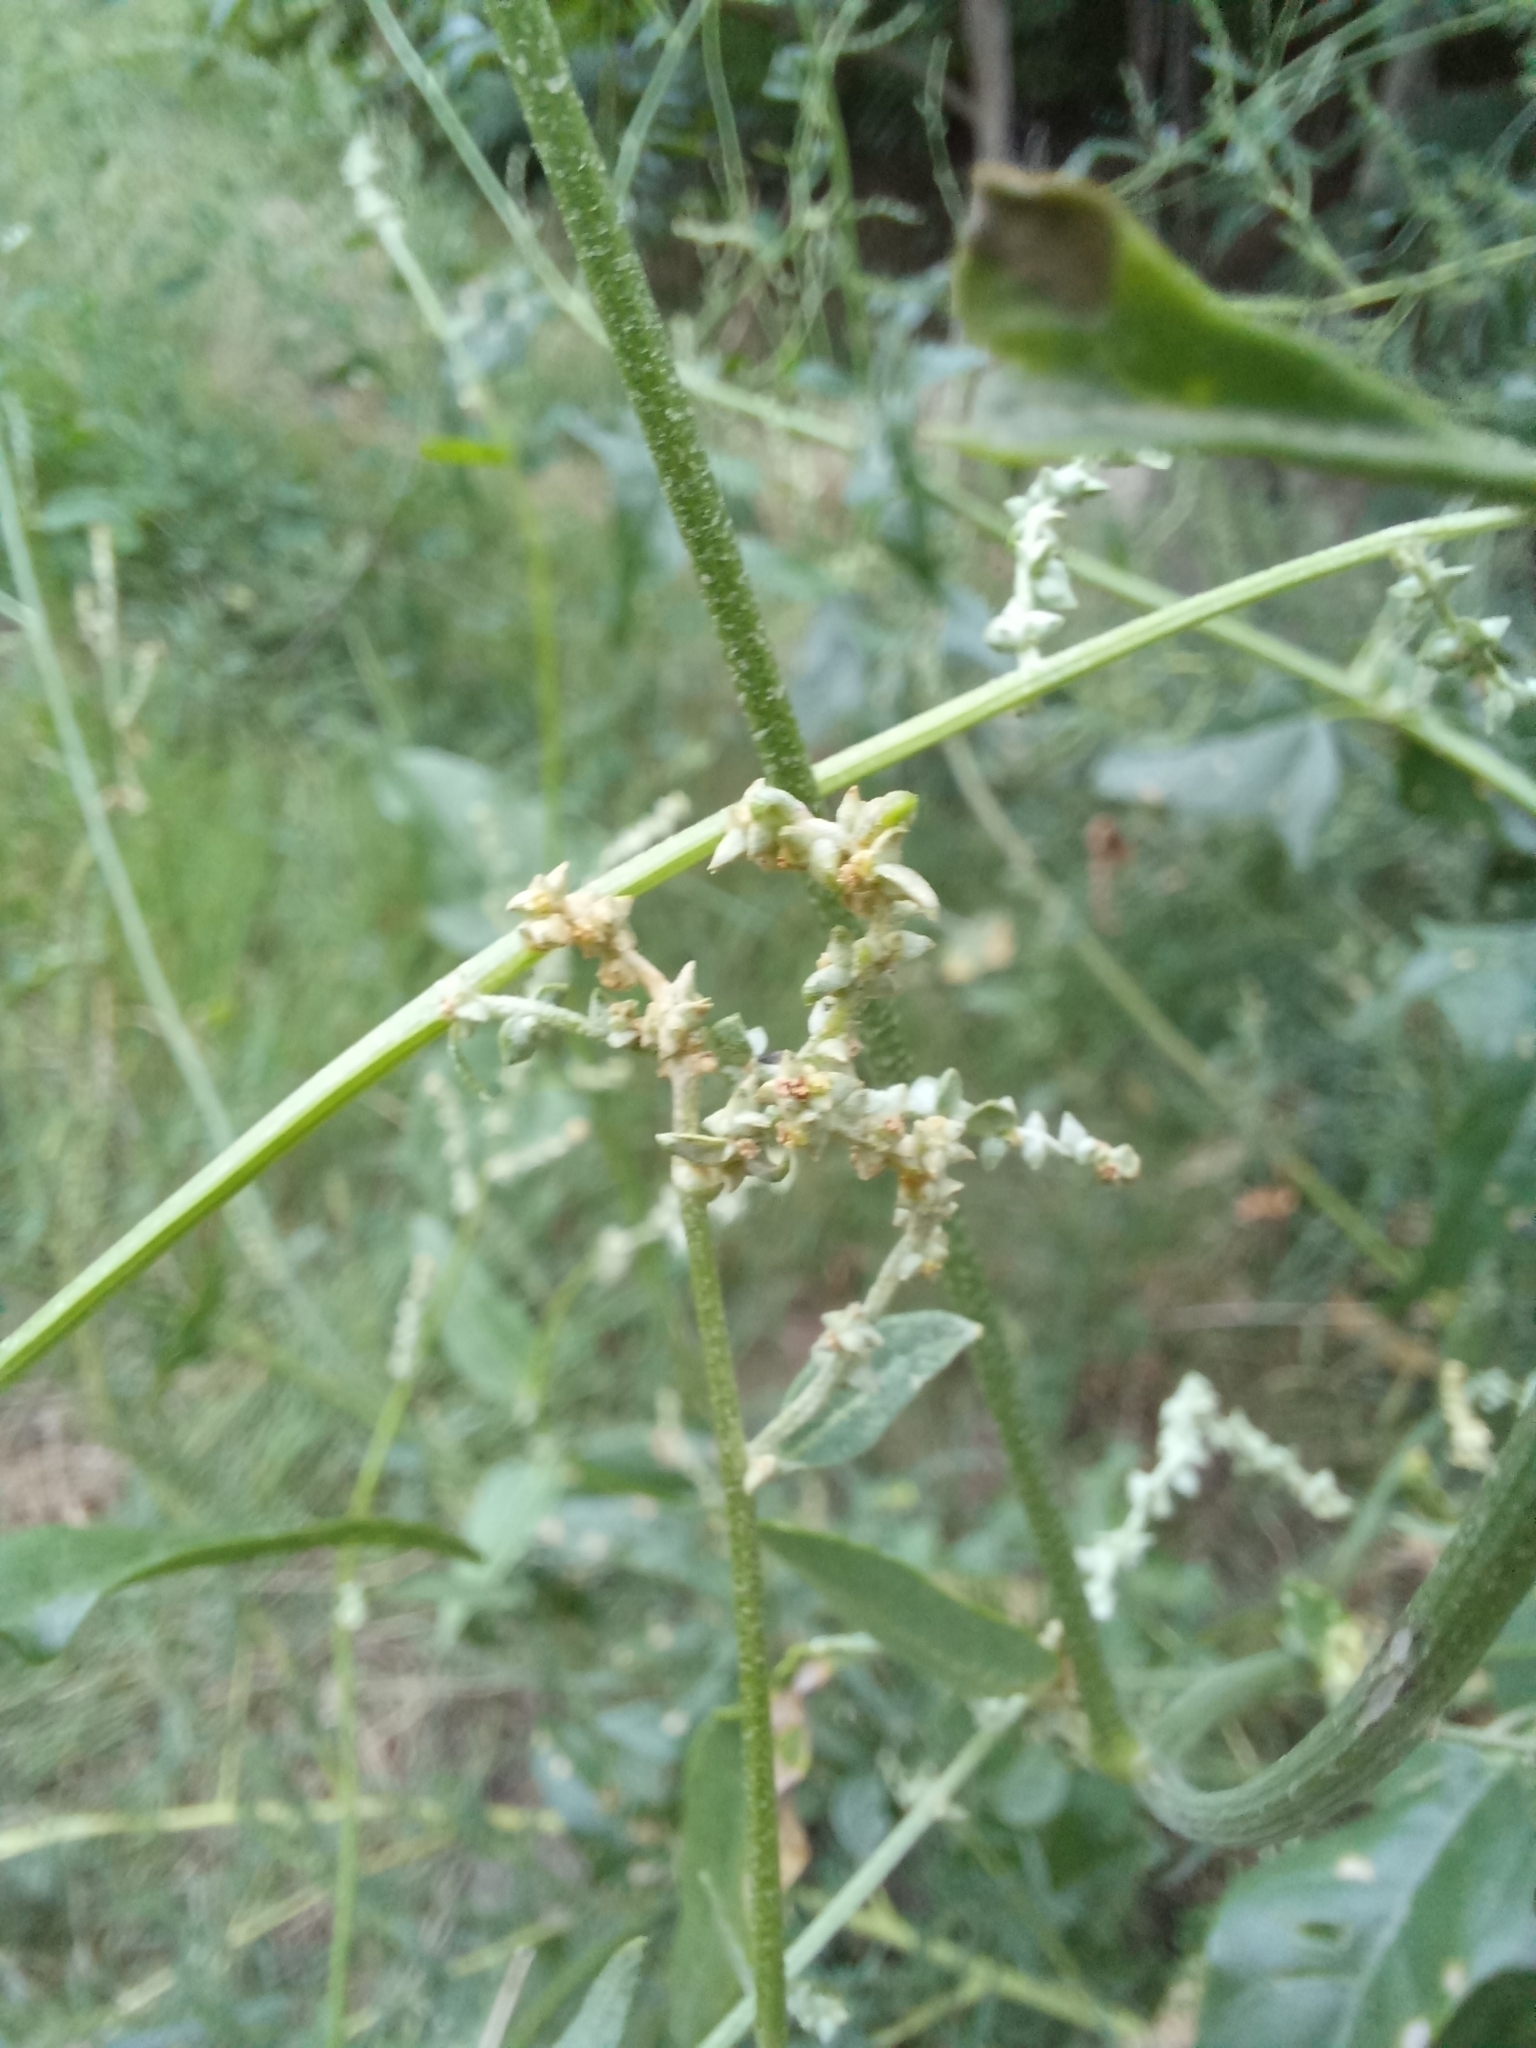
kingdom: Plantae
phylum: Tracheophyta
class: Magnoliopsida
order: Caryophyllales
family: Amaranthaceae
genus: Atriplex
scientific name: Atriplex micrantha
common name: Twoscale saltbush
